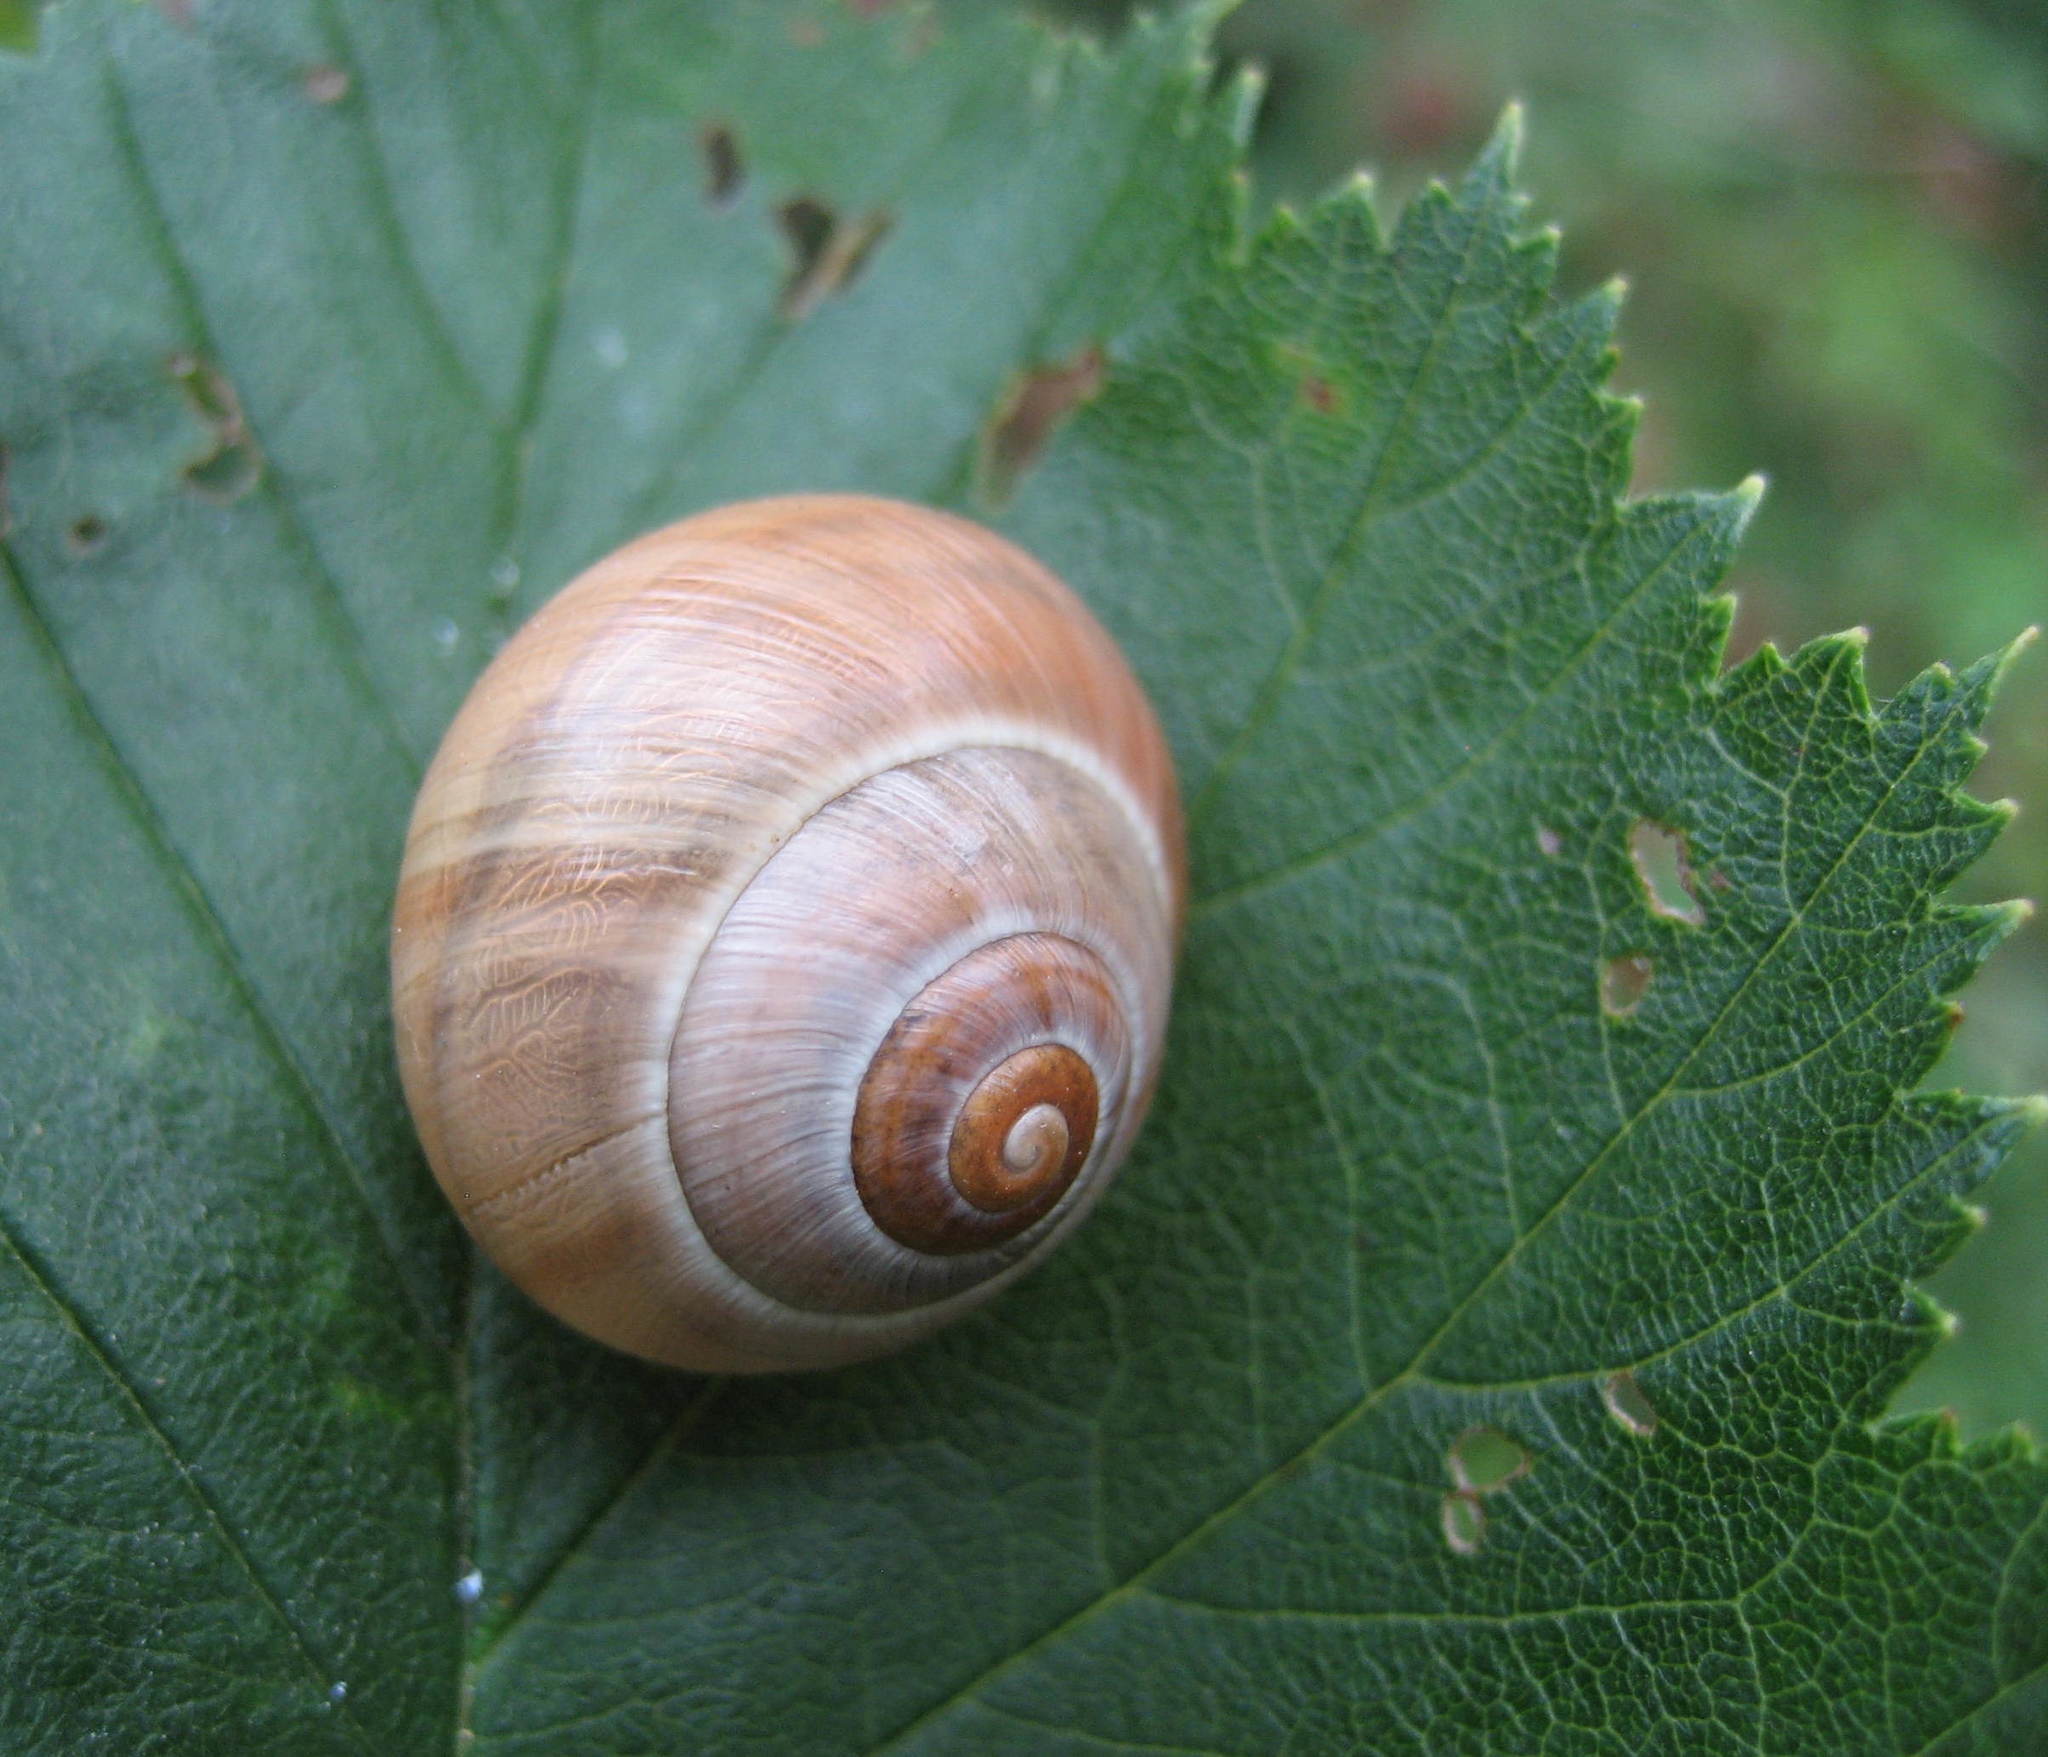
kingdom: Animalia
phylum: Mollusca
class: Gastropoda
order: Stylommatophora
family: Helicidae
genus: Cepaea
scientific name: Cepaea
